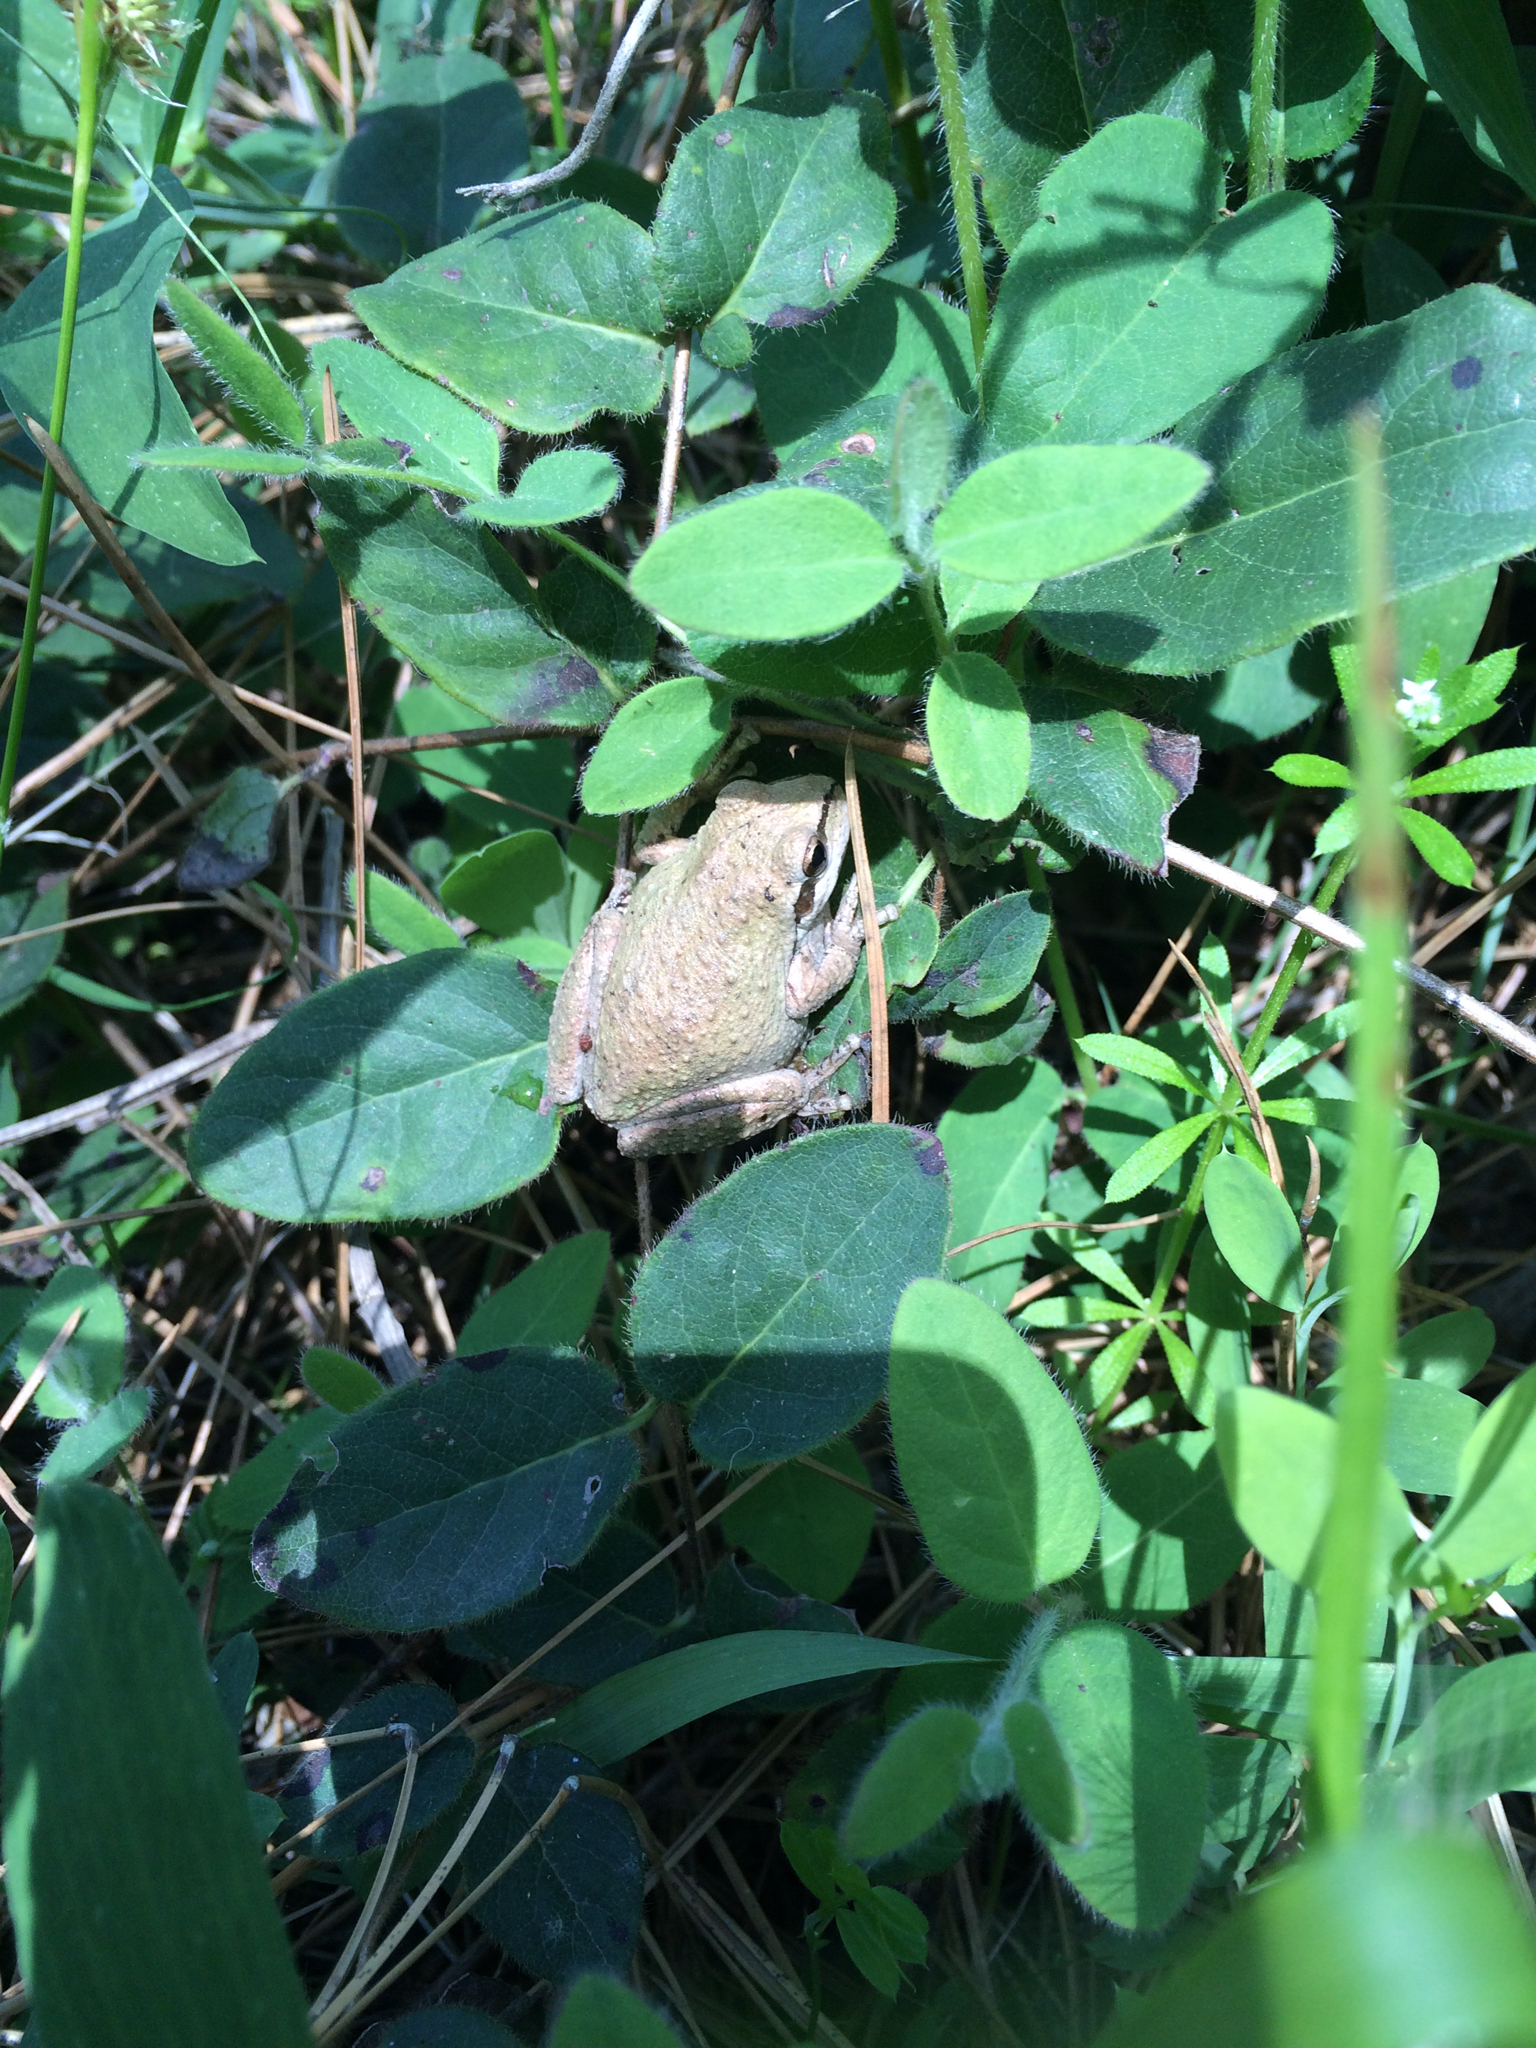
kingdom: Animalia
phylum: Chordata
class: Amphibia
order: Anura
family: Hylidae
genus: Pseudacris
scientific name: Pseudacris regilla
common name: Pacific chorus frog
